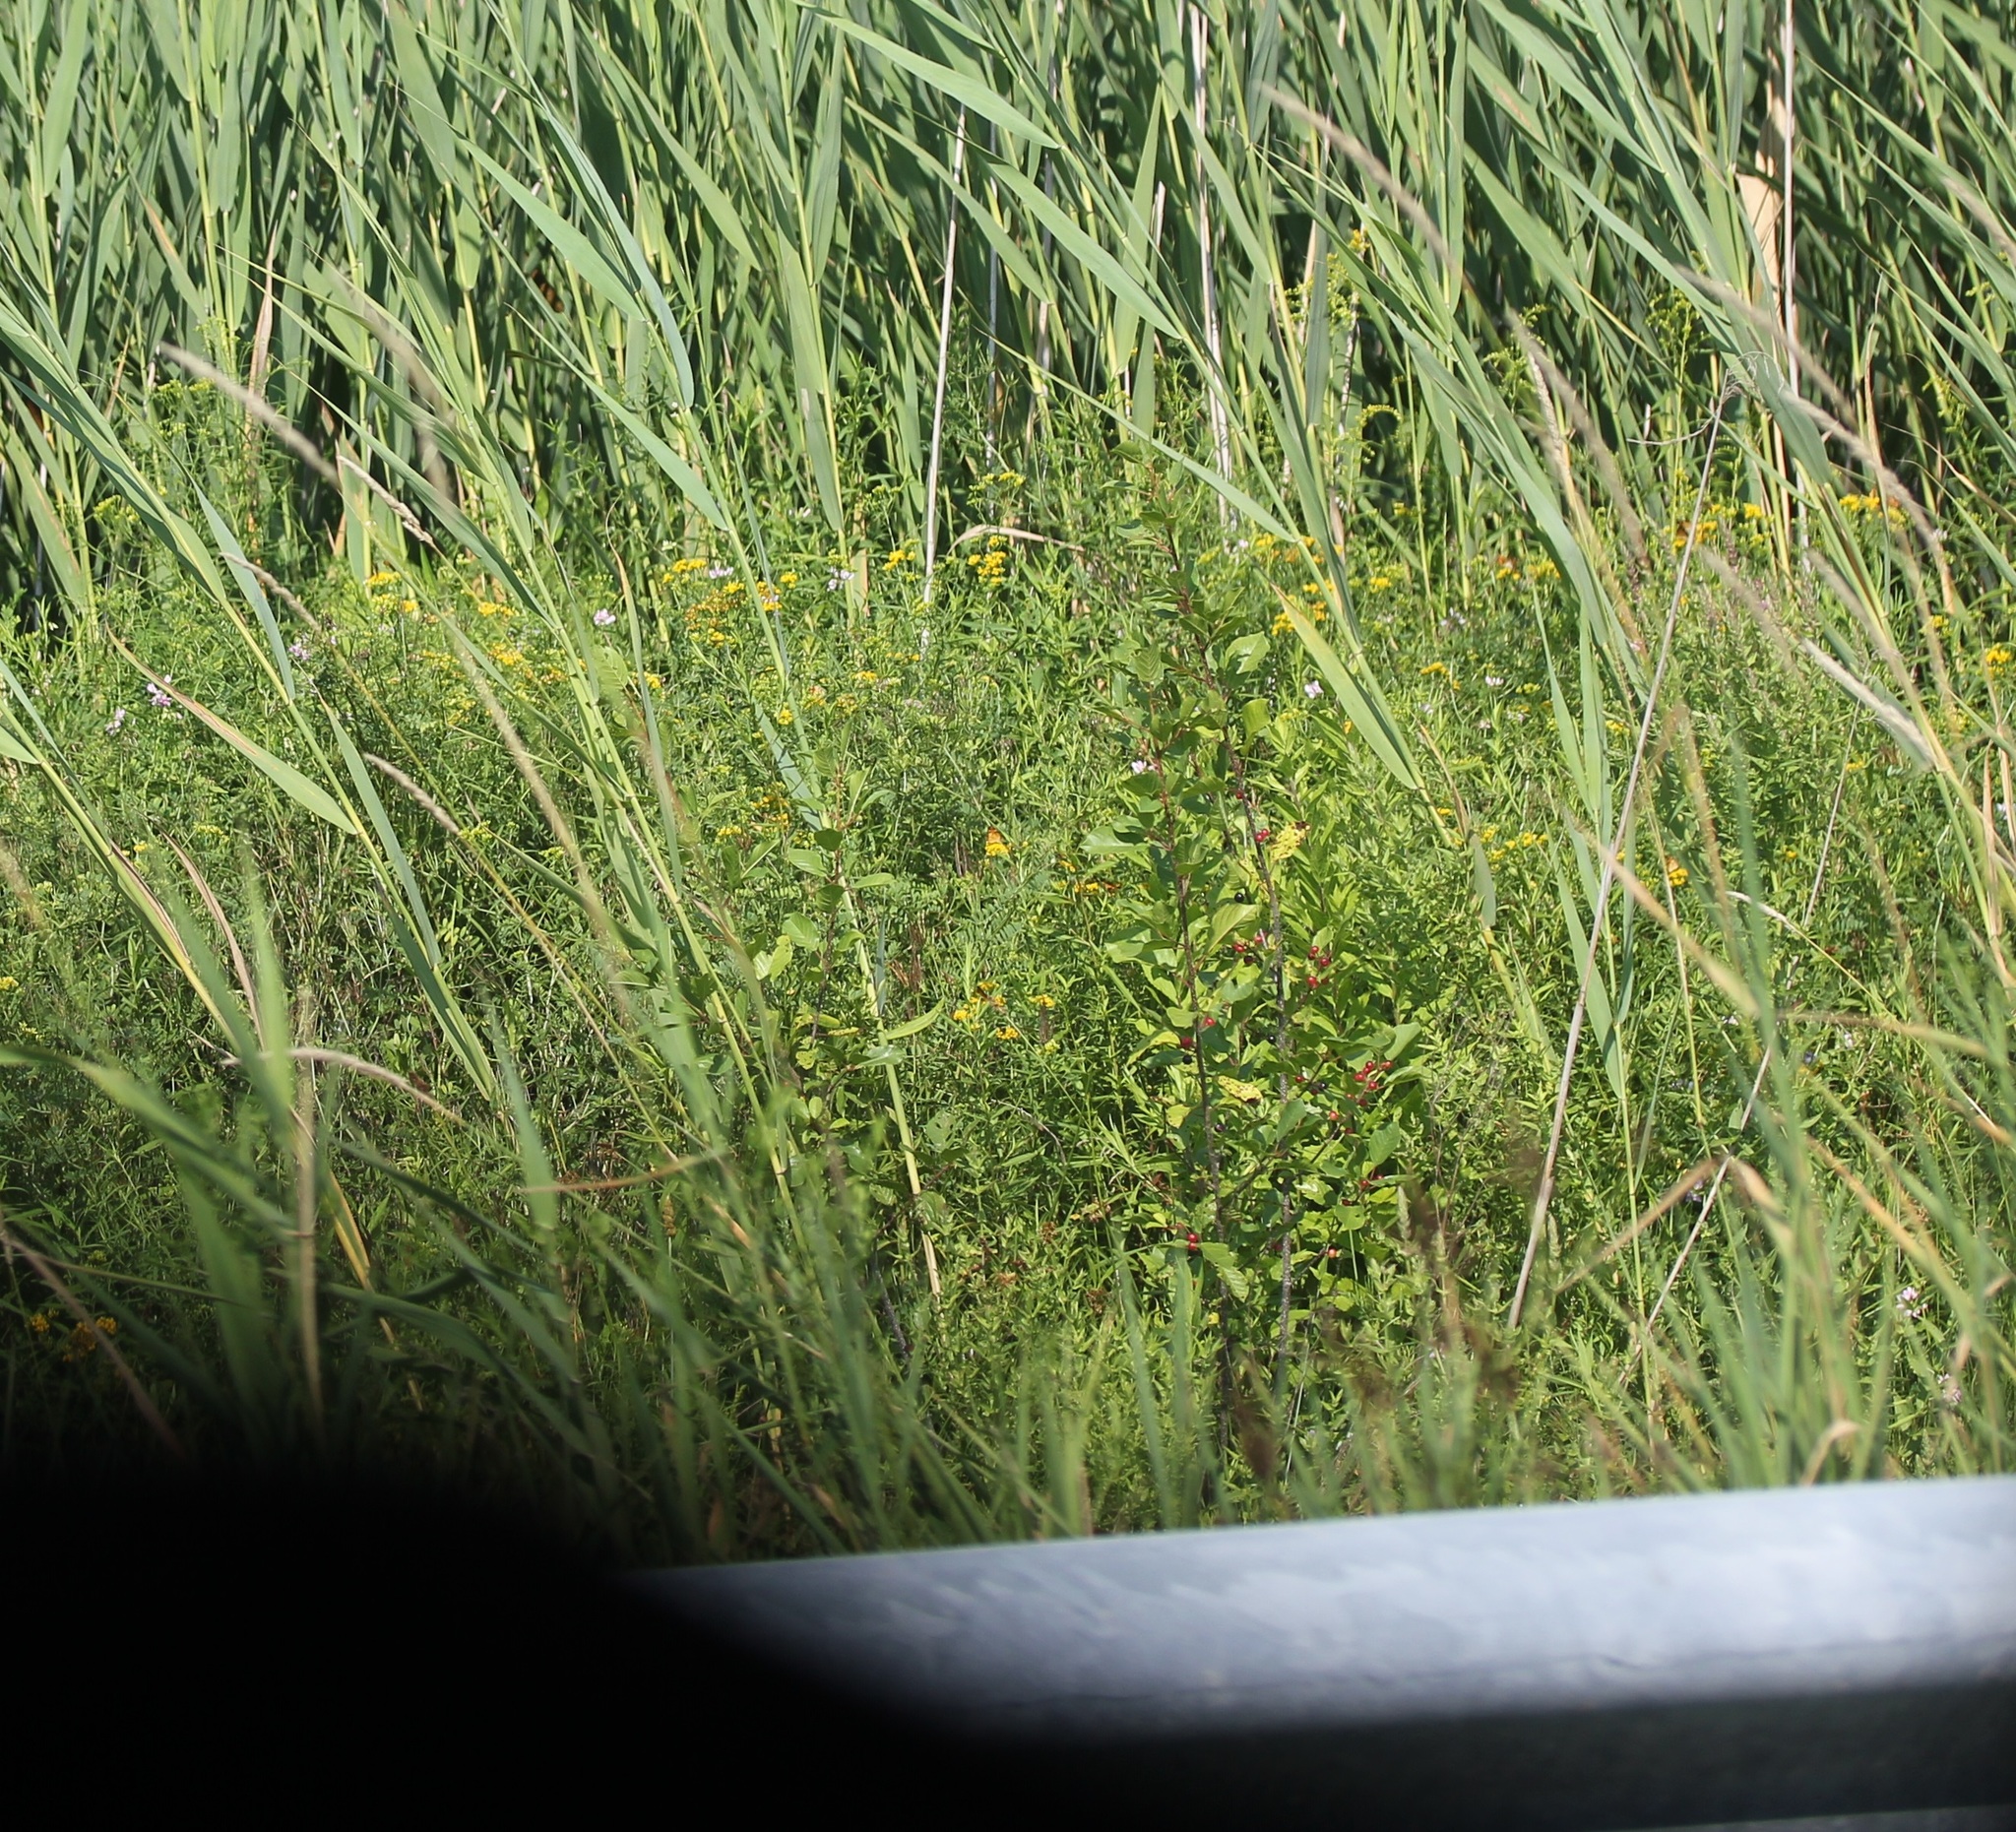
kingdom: Plantae
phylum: Tracheophyta
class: Magnoliopsida
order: Rosales
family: Rhamnaceae
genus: Frangula
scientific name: Frangula alnus
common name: Alder buckthorn
